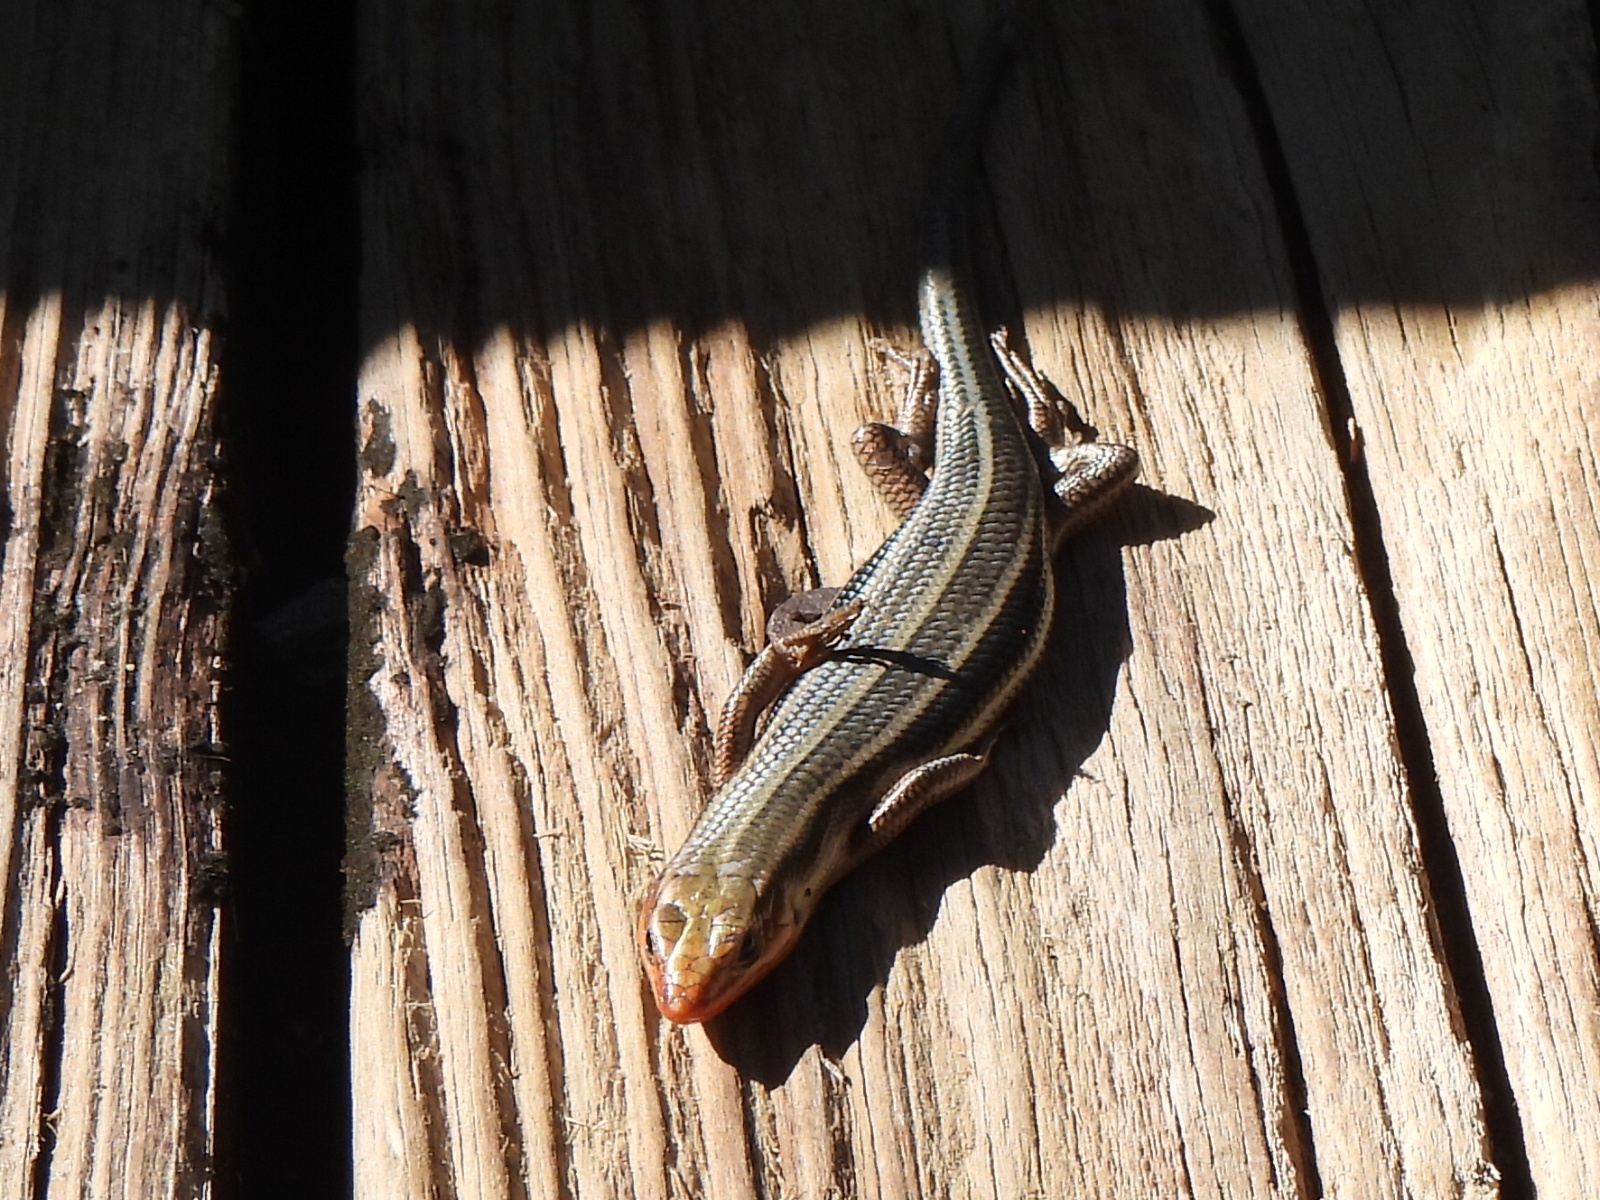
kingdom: Animalia
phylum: Chordata
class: Squamata
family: Scincidae
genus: Plestiodon
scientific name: Plestiodon fasciatus
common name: Five-lined skink
